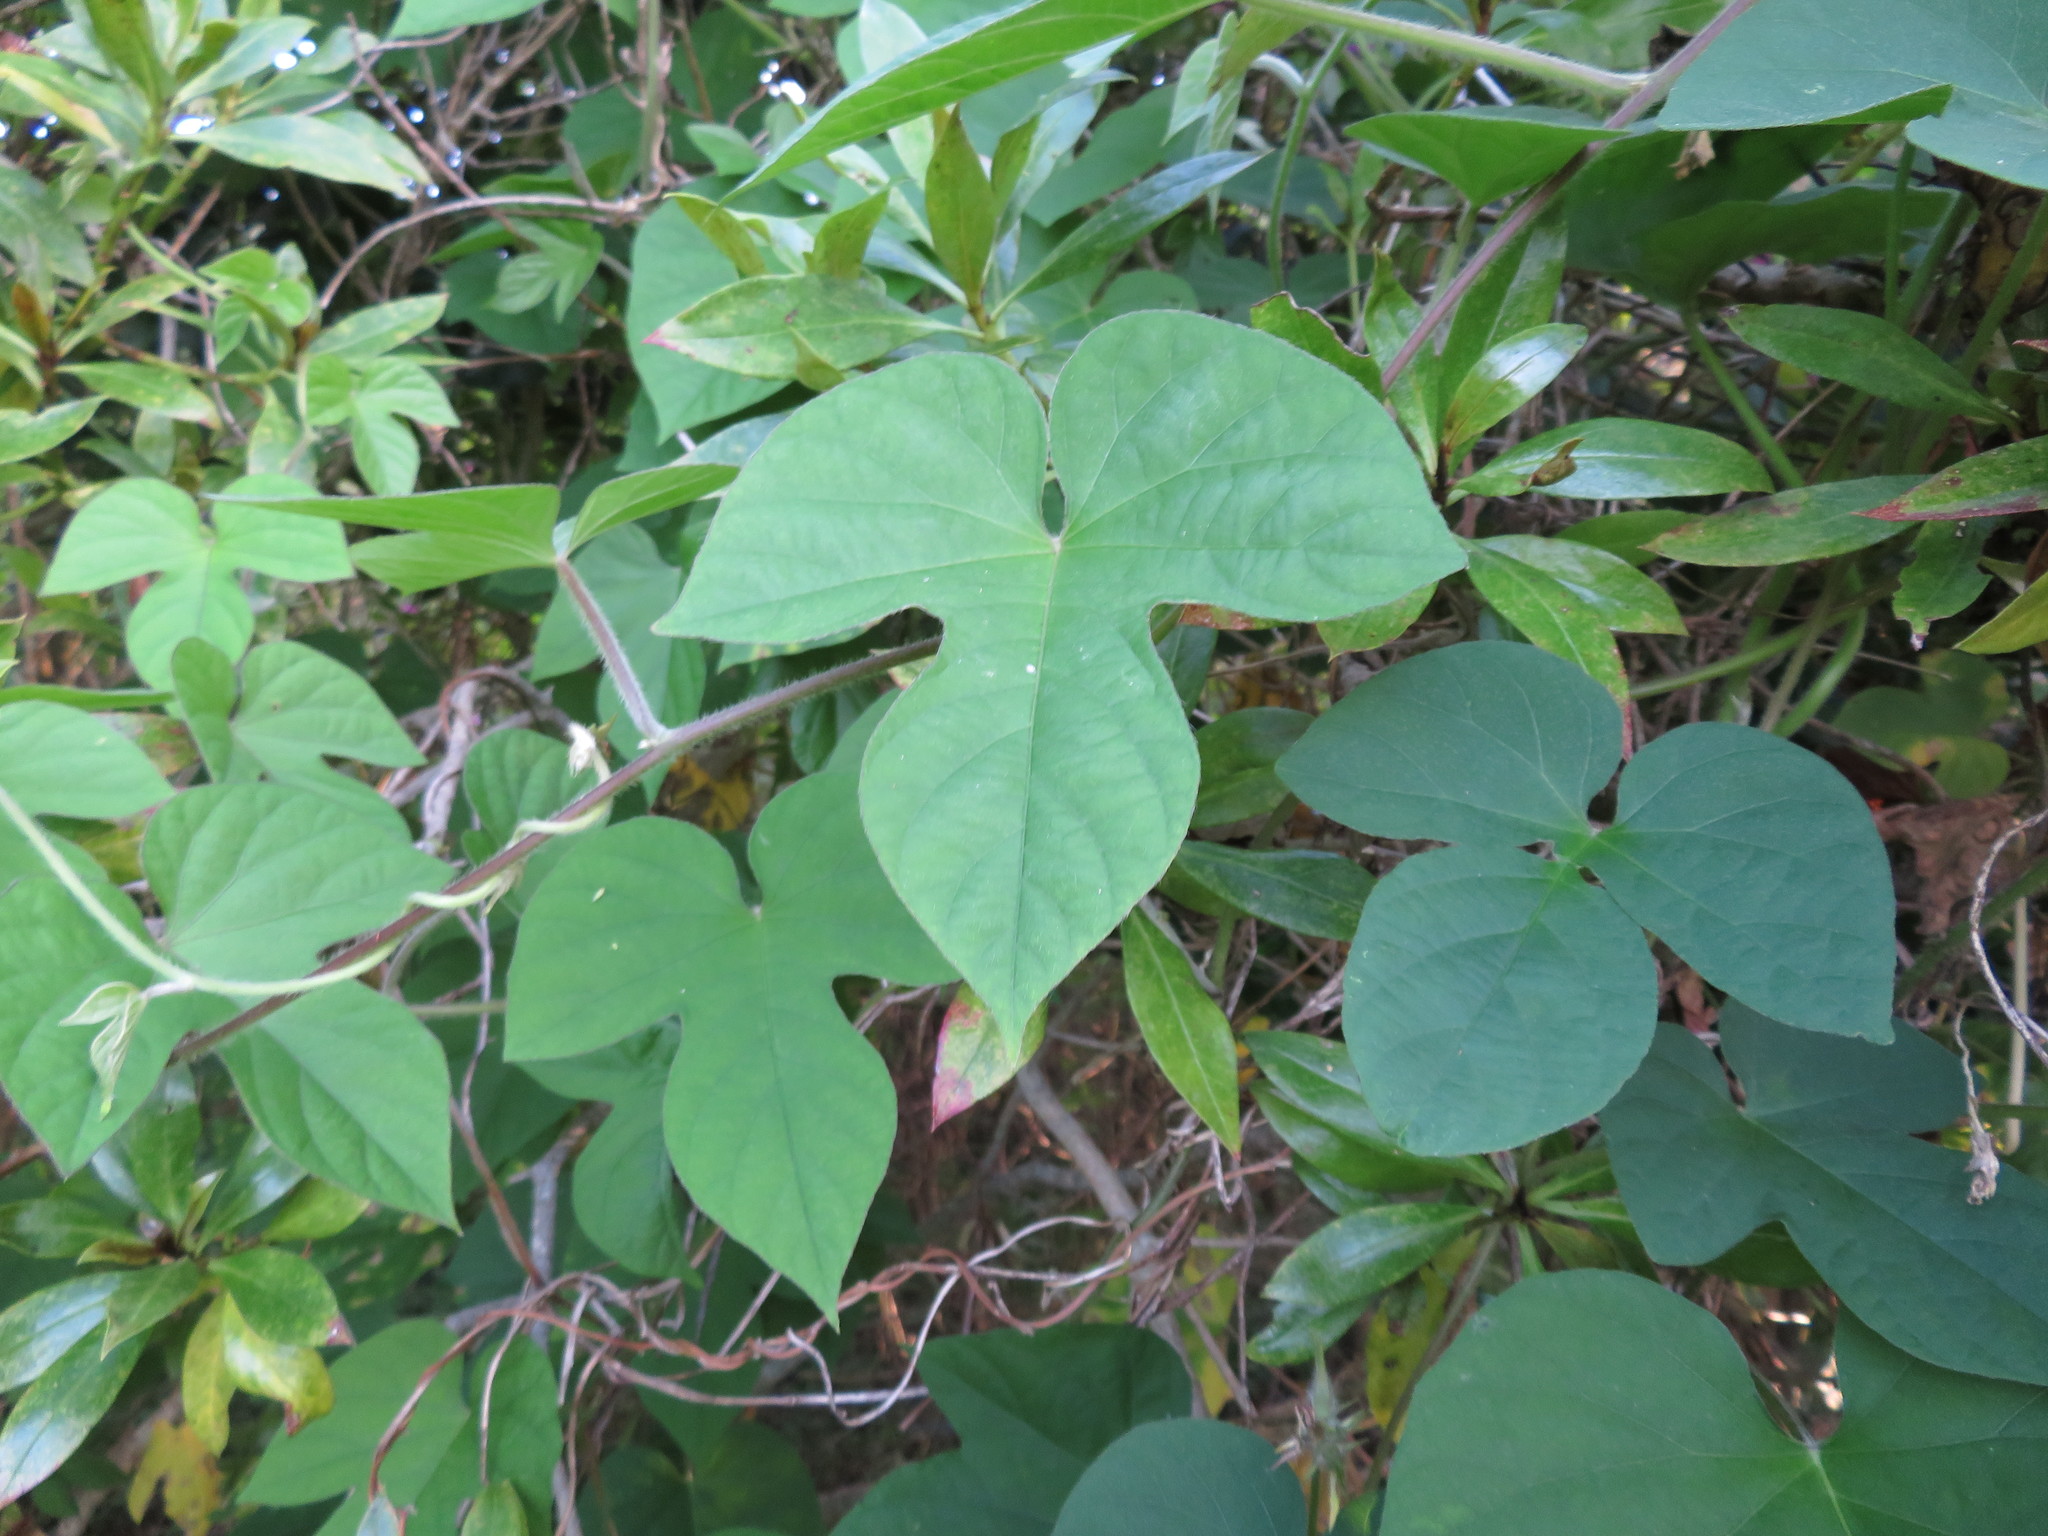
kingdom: Plantae
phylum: Tracheophyta
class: Magnoliopsida
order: Solanales
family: Convolvulaceae
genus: Ipomoea
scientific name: Ipomoea indica
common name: Blue dawnflower
